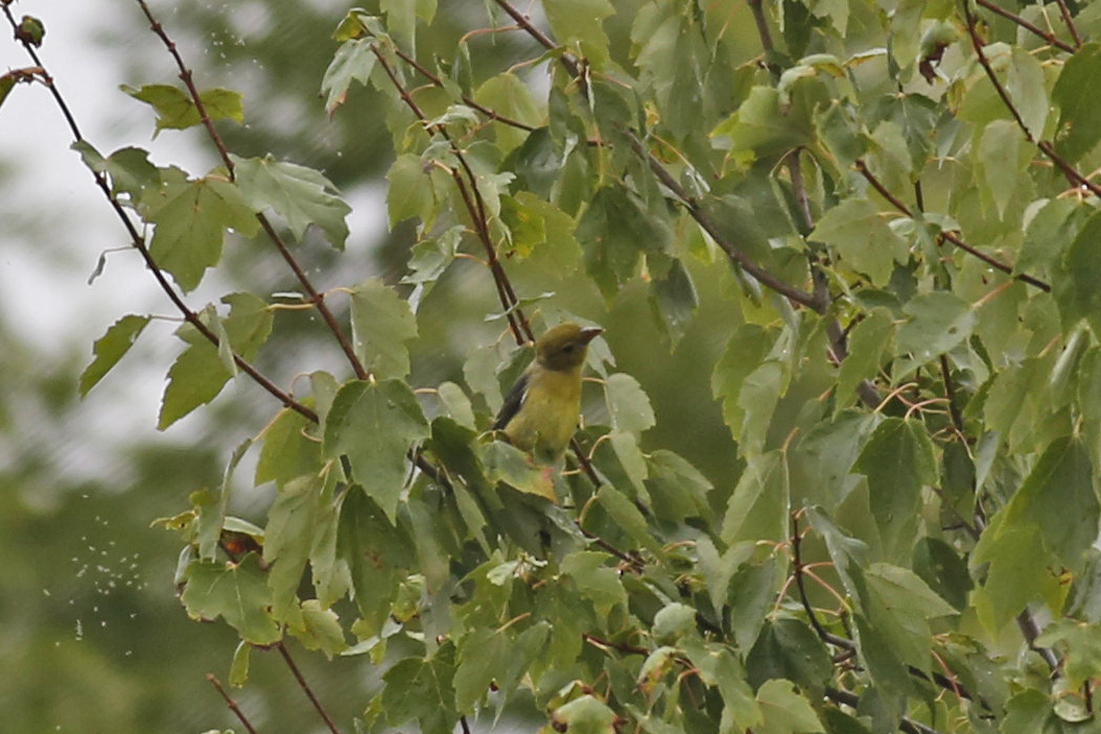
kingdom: Animalia
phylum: Chordata
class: Aves
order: Passeriformes
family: Cardinalidae
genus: Piranga
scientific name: Piranga olivacea
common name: Scarlet tanager
